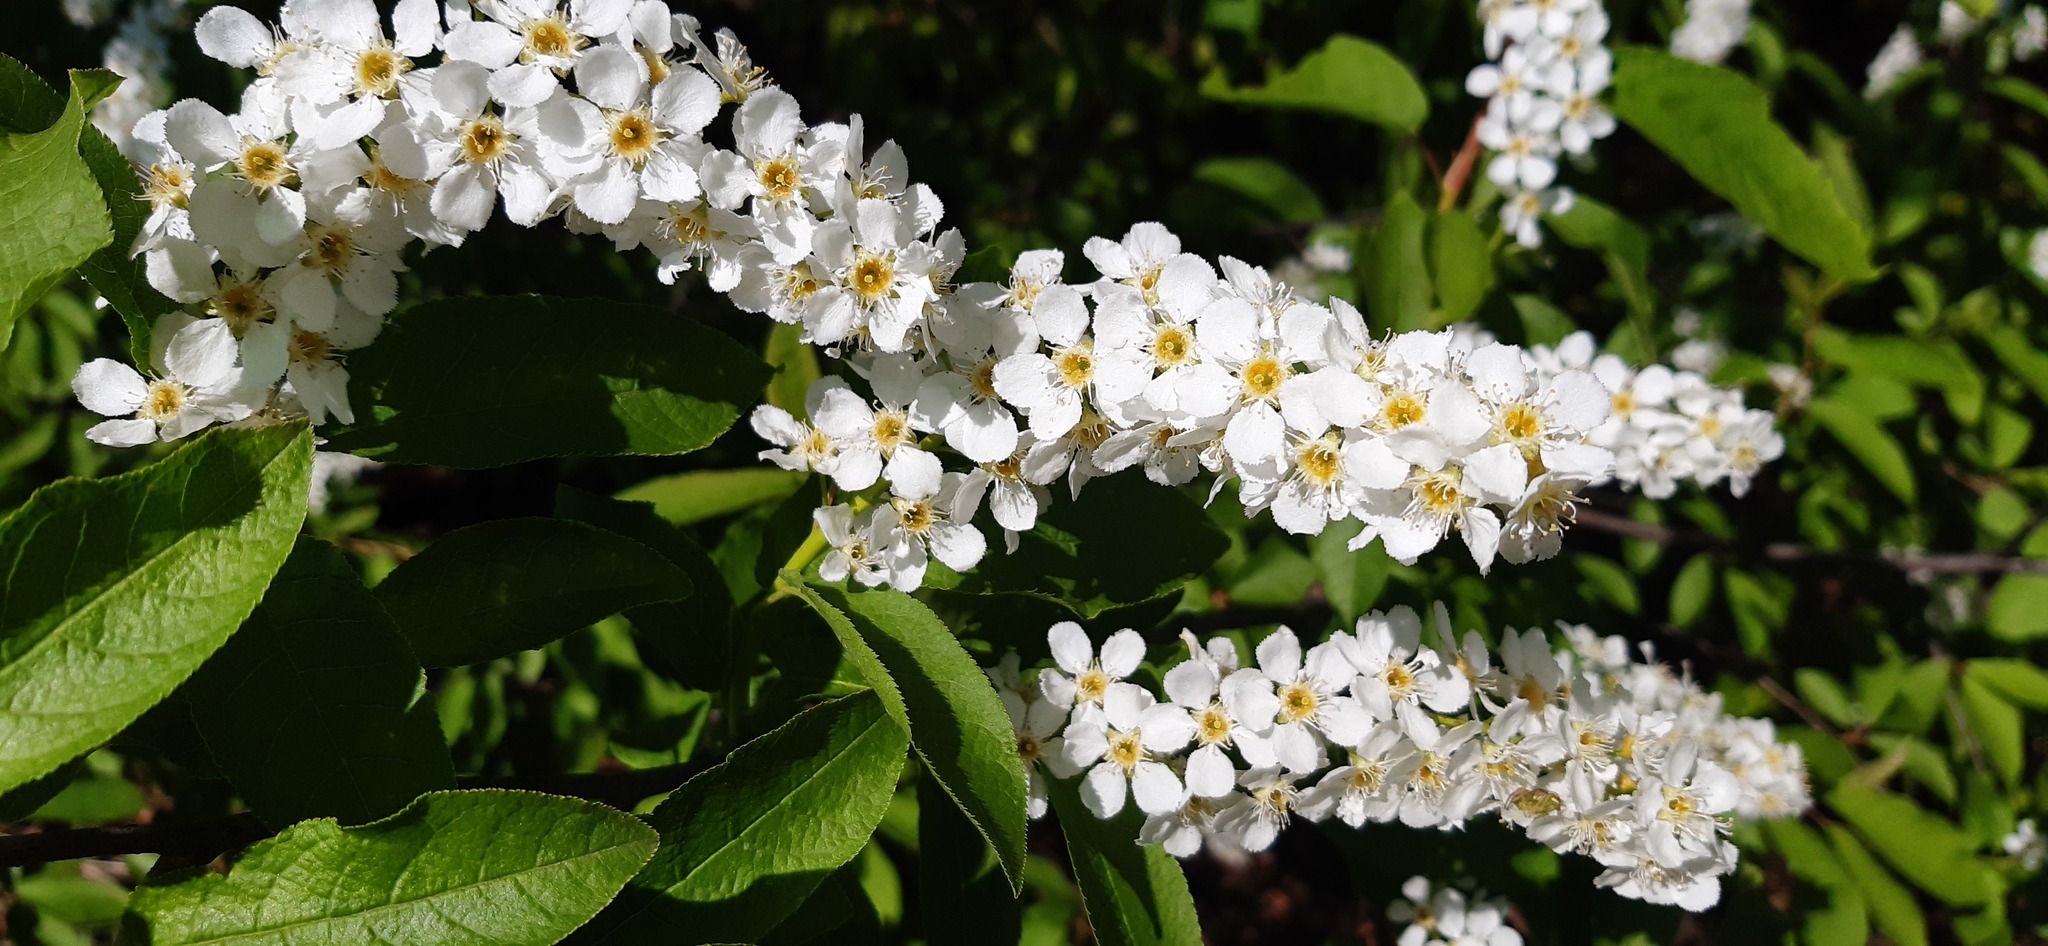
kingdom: Plantae
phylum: Tracheophyta
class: Magnoliopsida
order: Rosales
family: Rosaceae
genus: Prunus
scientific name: Prunus padus
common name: Bird cherry
